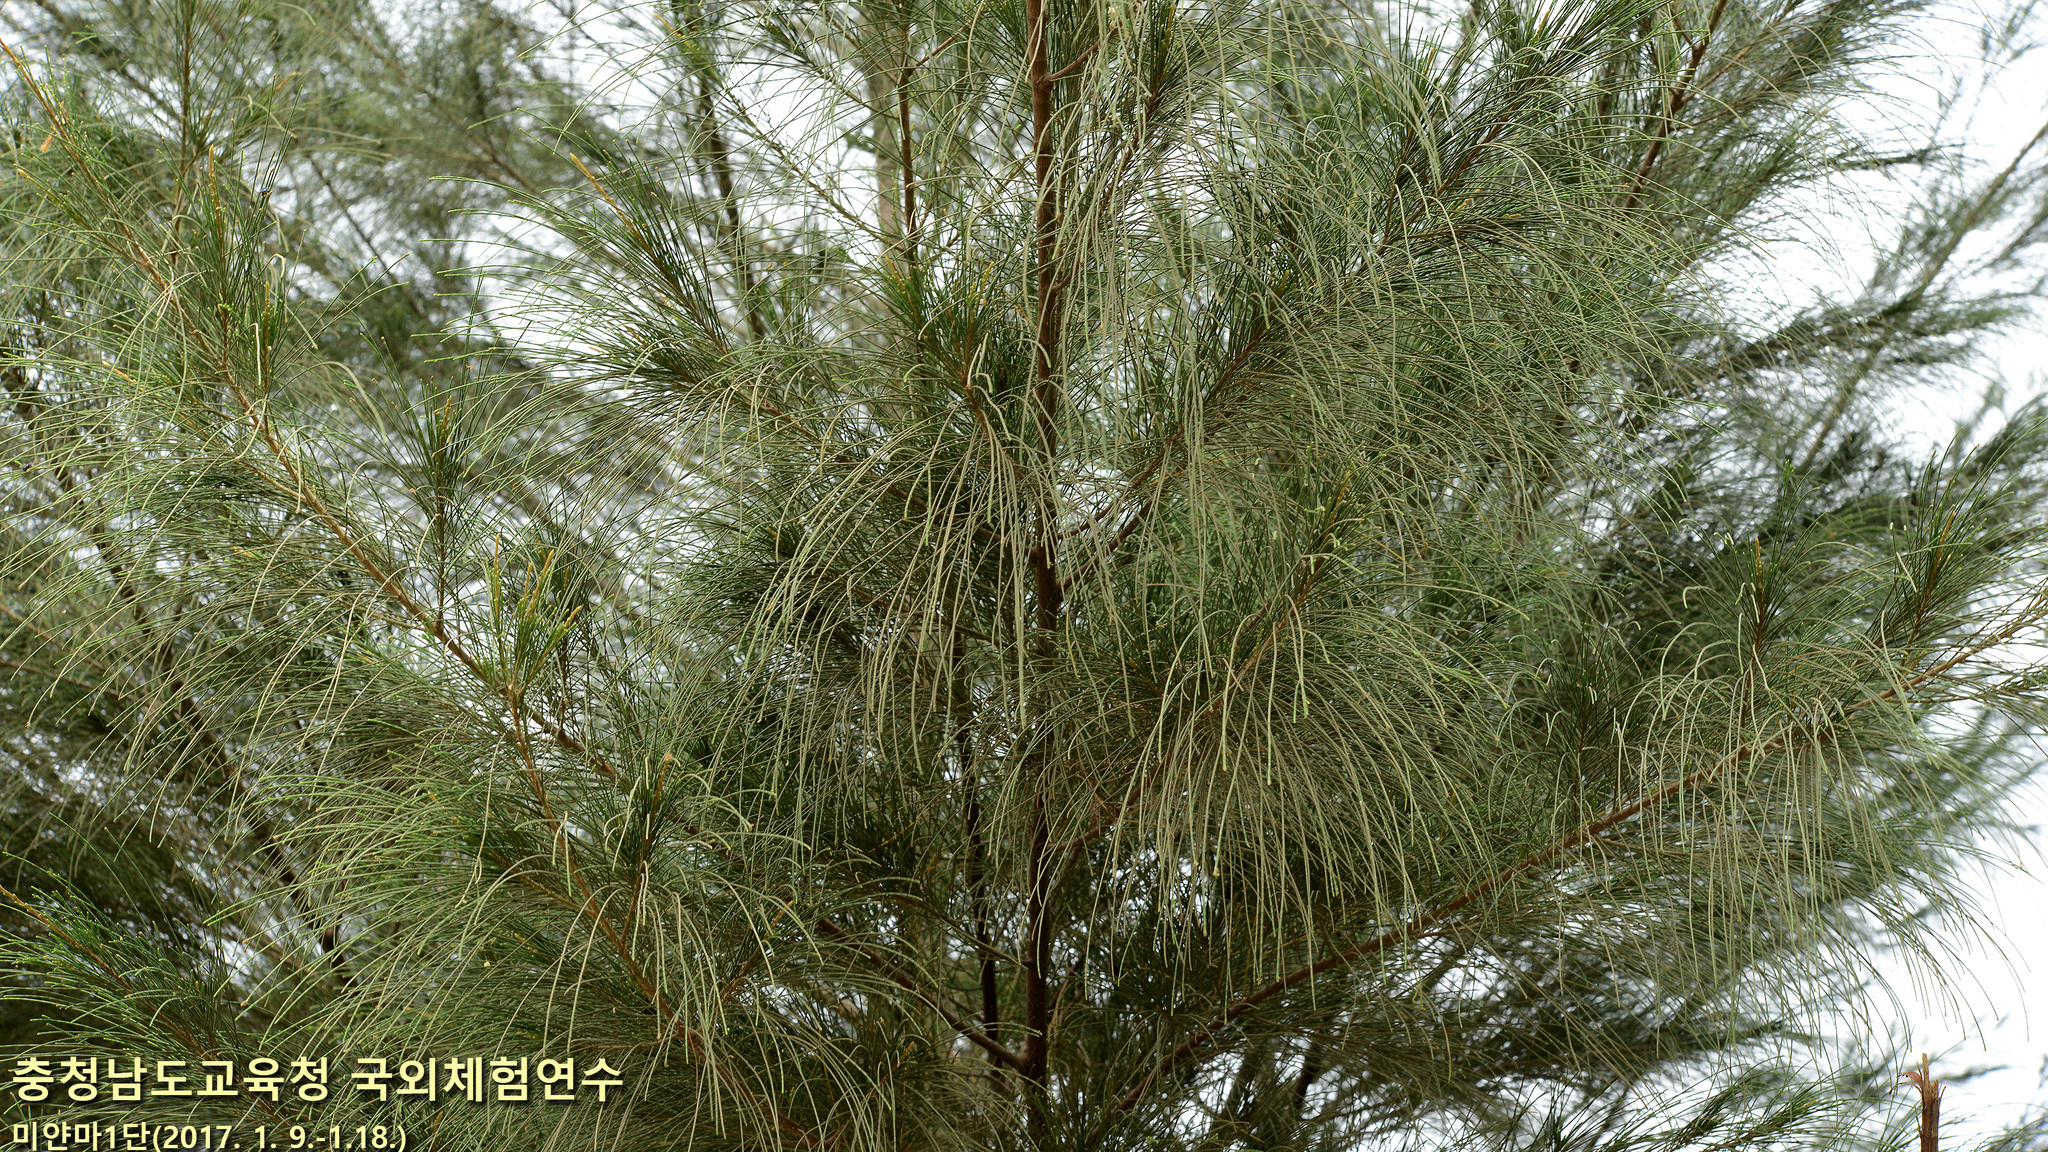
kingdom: Plantae
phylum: Tracheophyta
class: Magnoliopsida
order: Fagales
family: Casuarinaceae
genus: Casuarina
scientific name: Casuarina equisetifolia
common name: Beach sheoak
